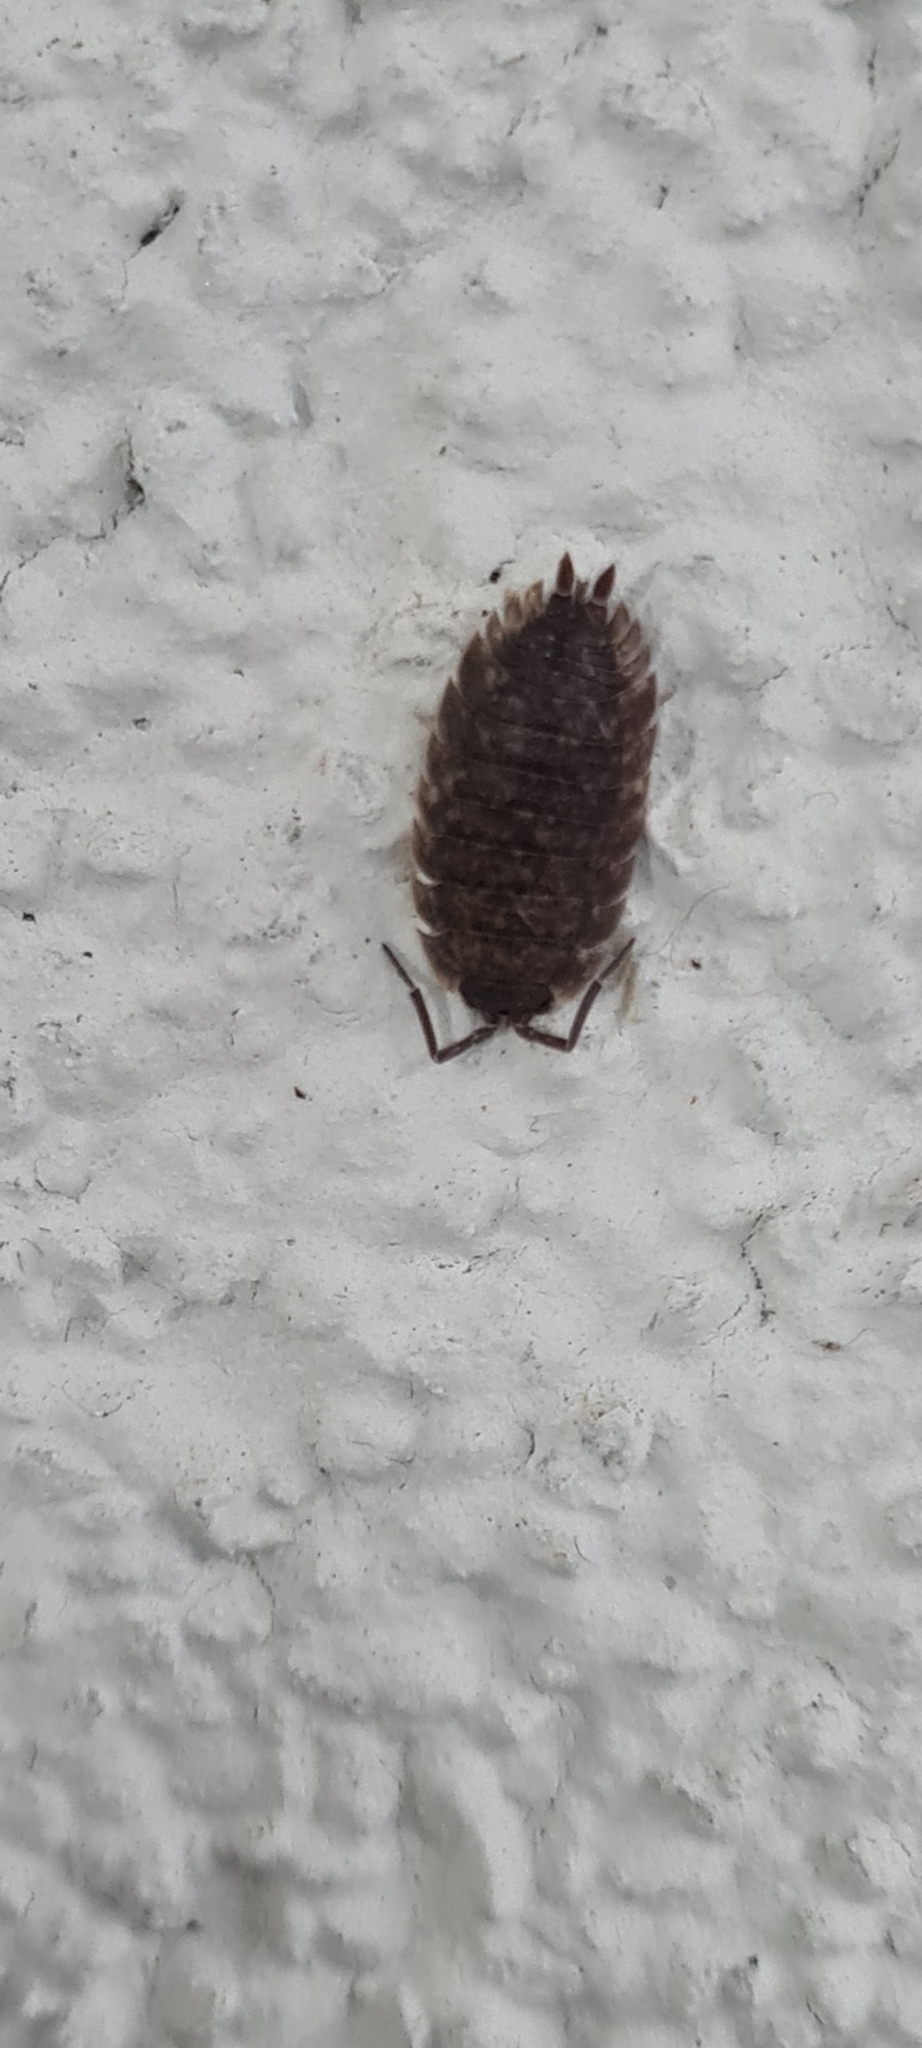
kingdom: Animalia
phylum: Arthropoda
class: Malacostraca
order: Isopoda
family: Porcellionidae
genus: Porcellio
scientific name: Porcellio scaber
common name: Common rough woodlouse
